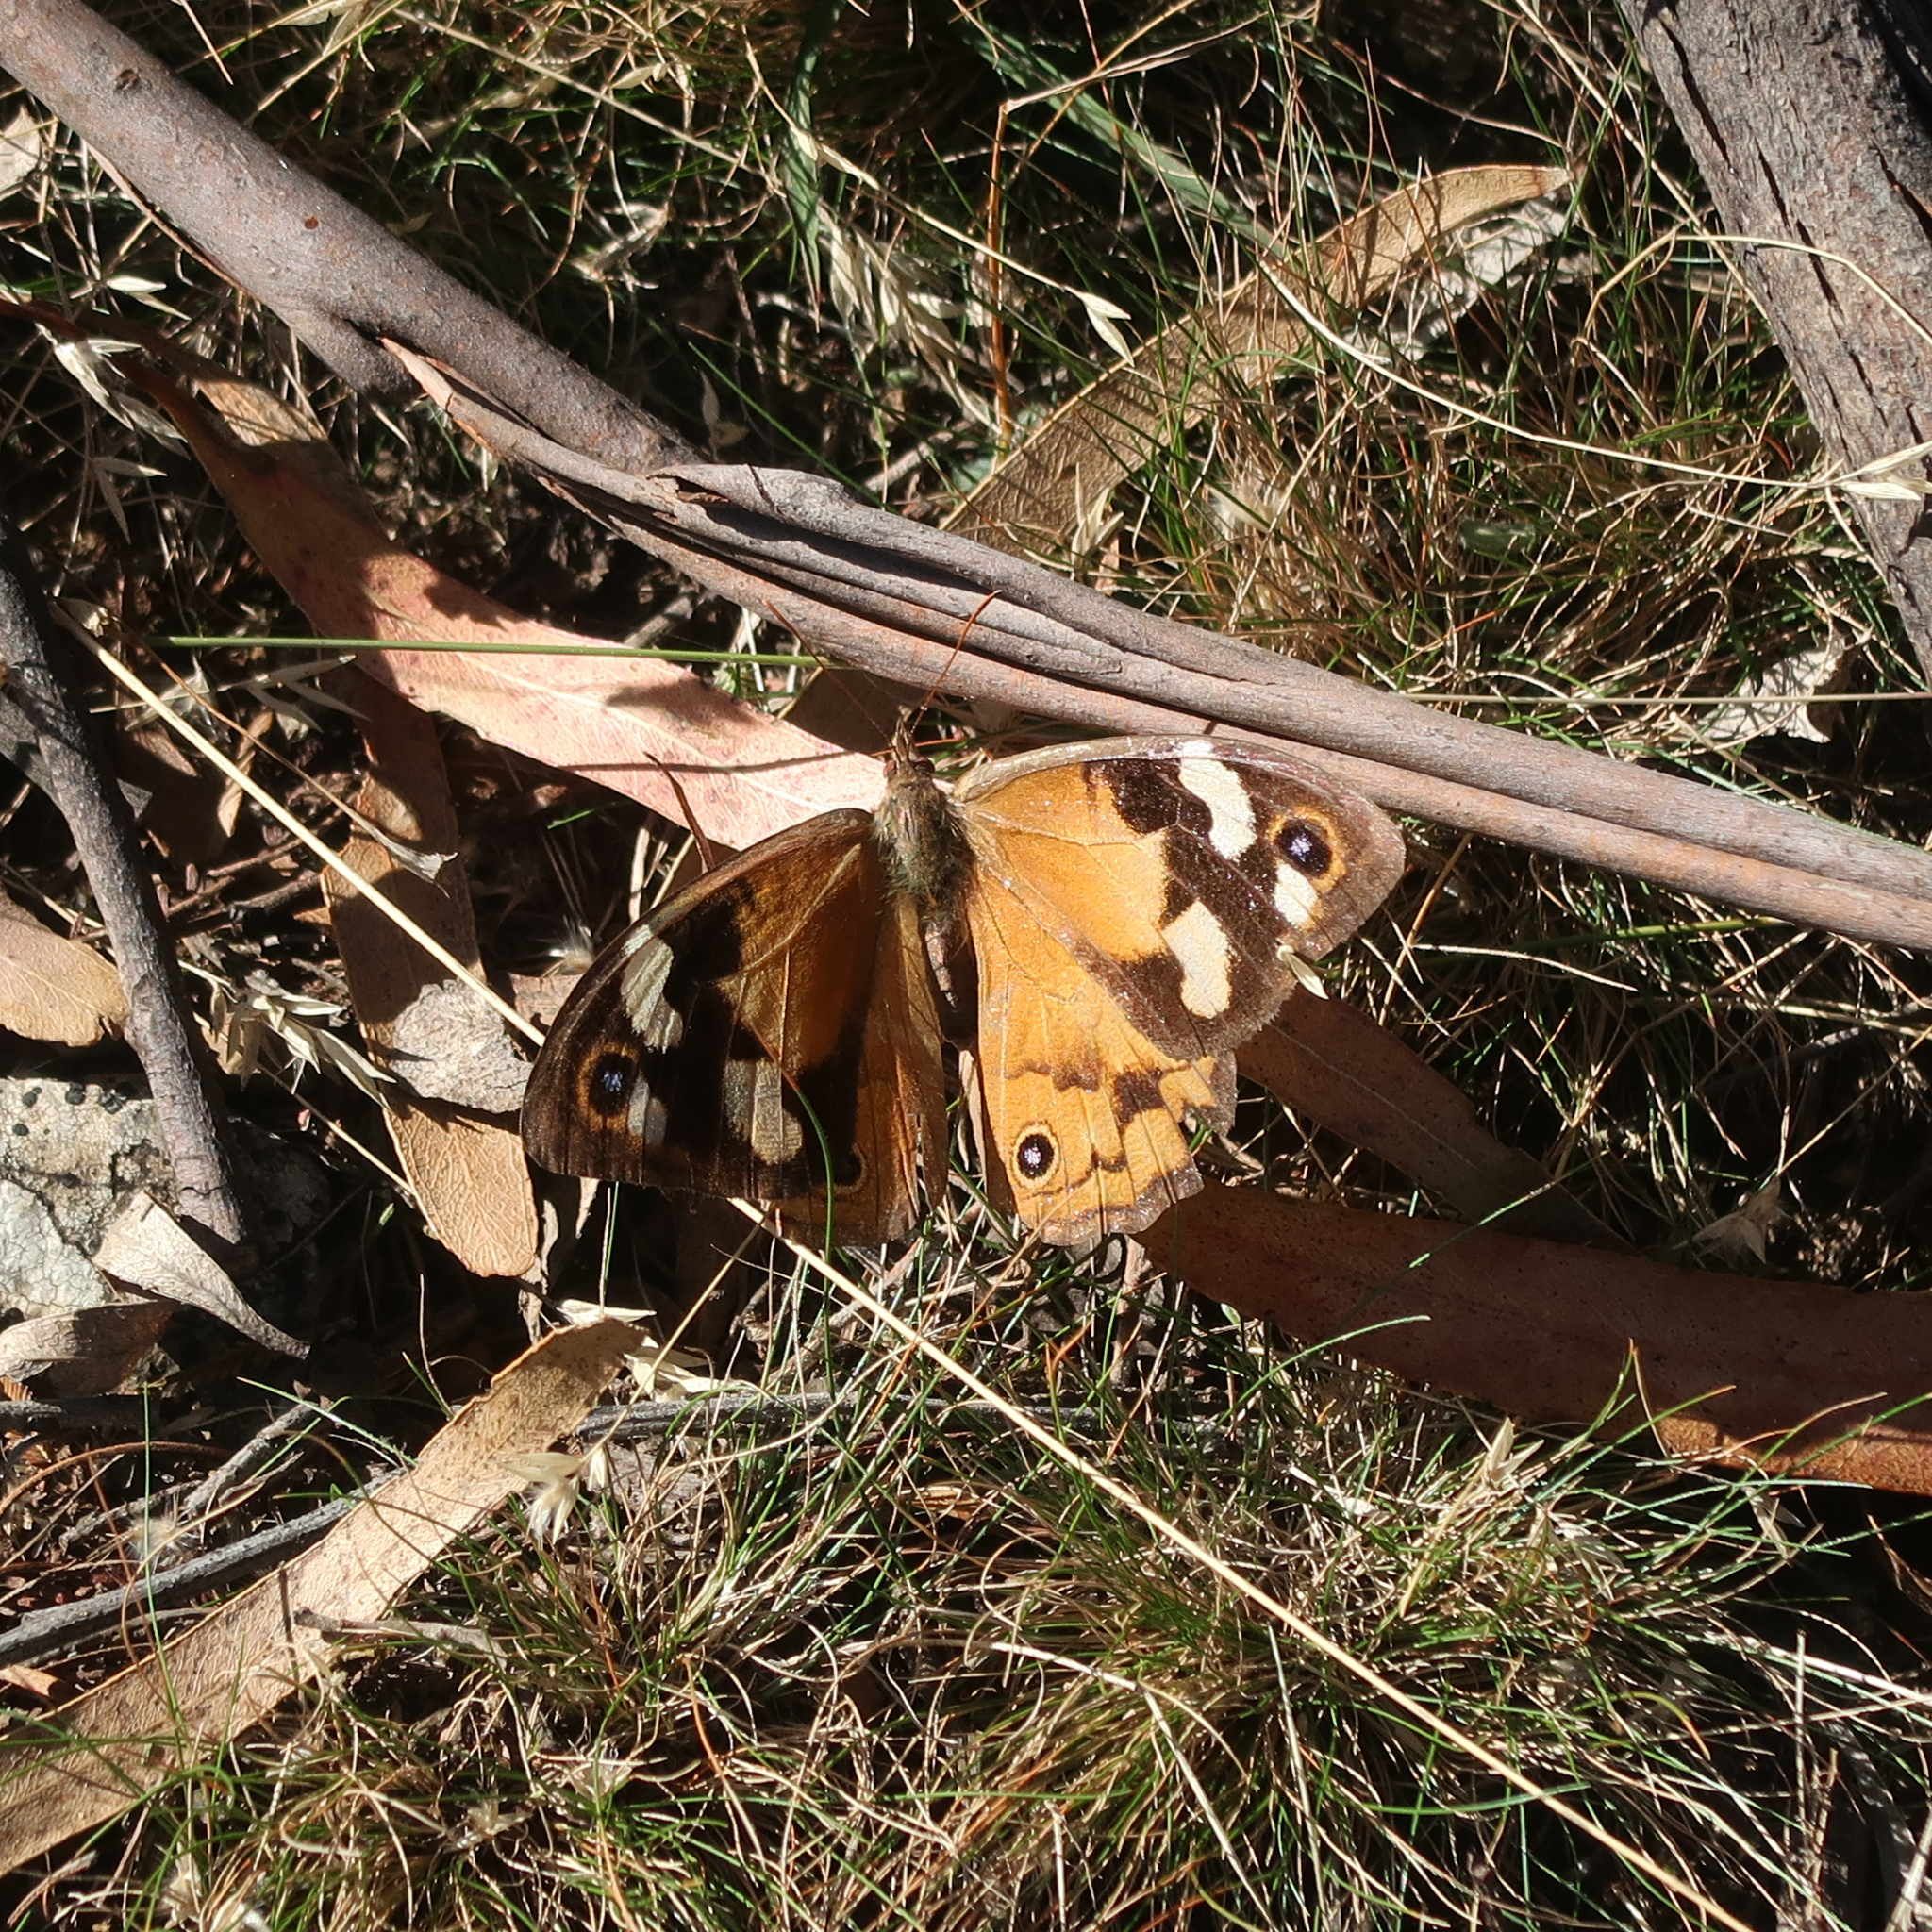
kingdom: Animalia
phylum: Arthropoda
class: Insecta
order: Lepidoptera
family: Nymphalidae
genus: Heteronympha
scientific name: Heteronympha merope
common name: Common brown
